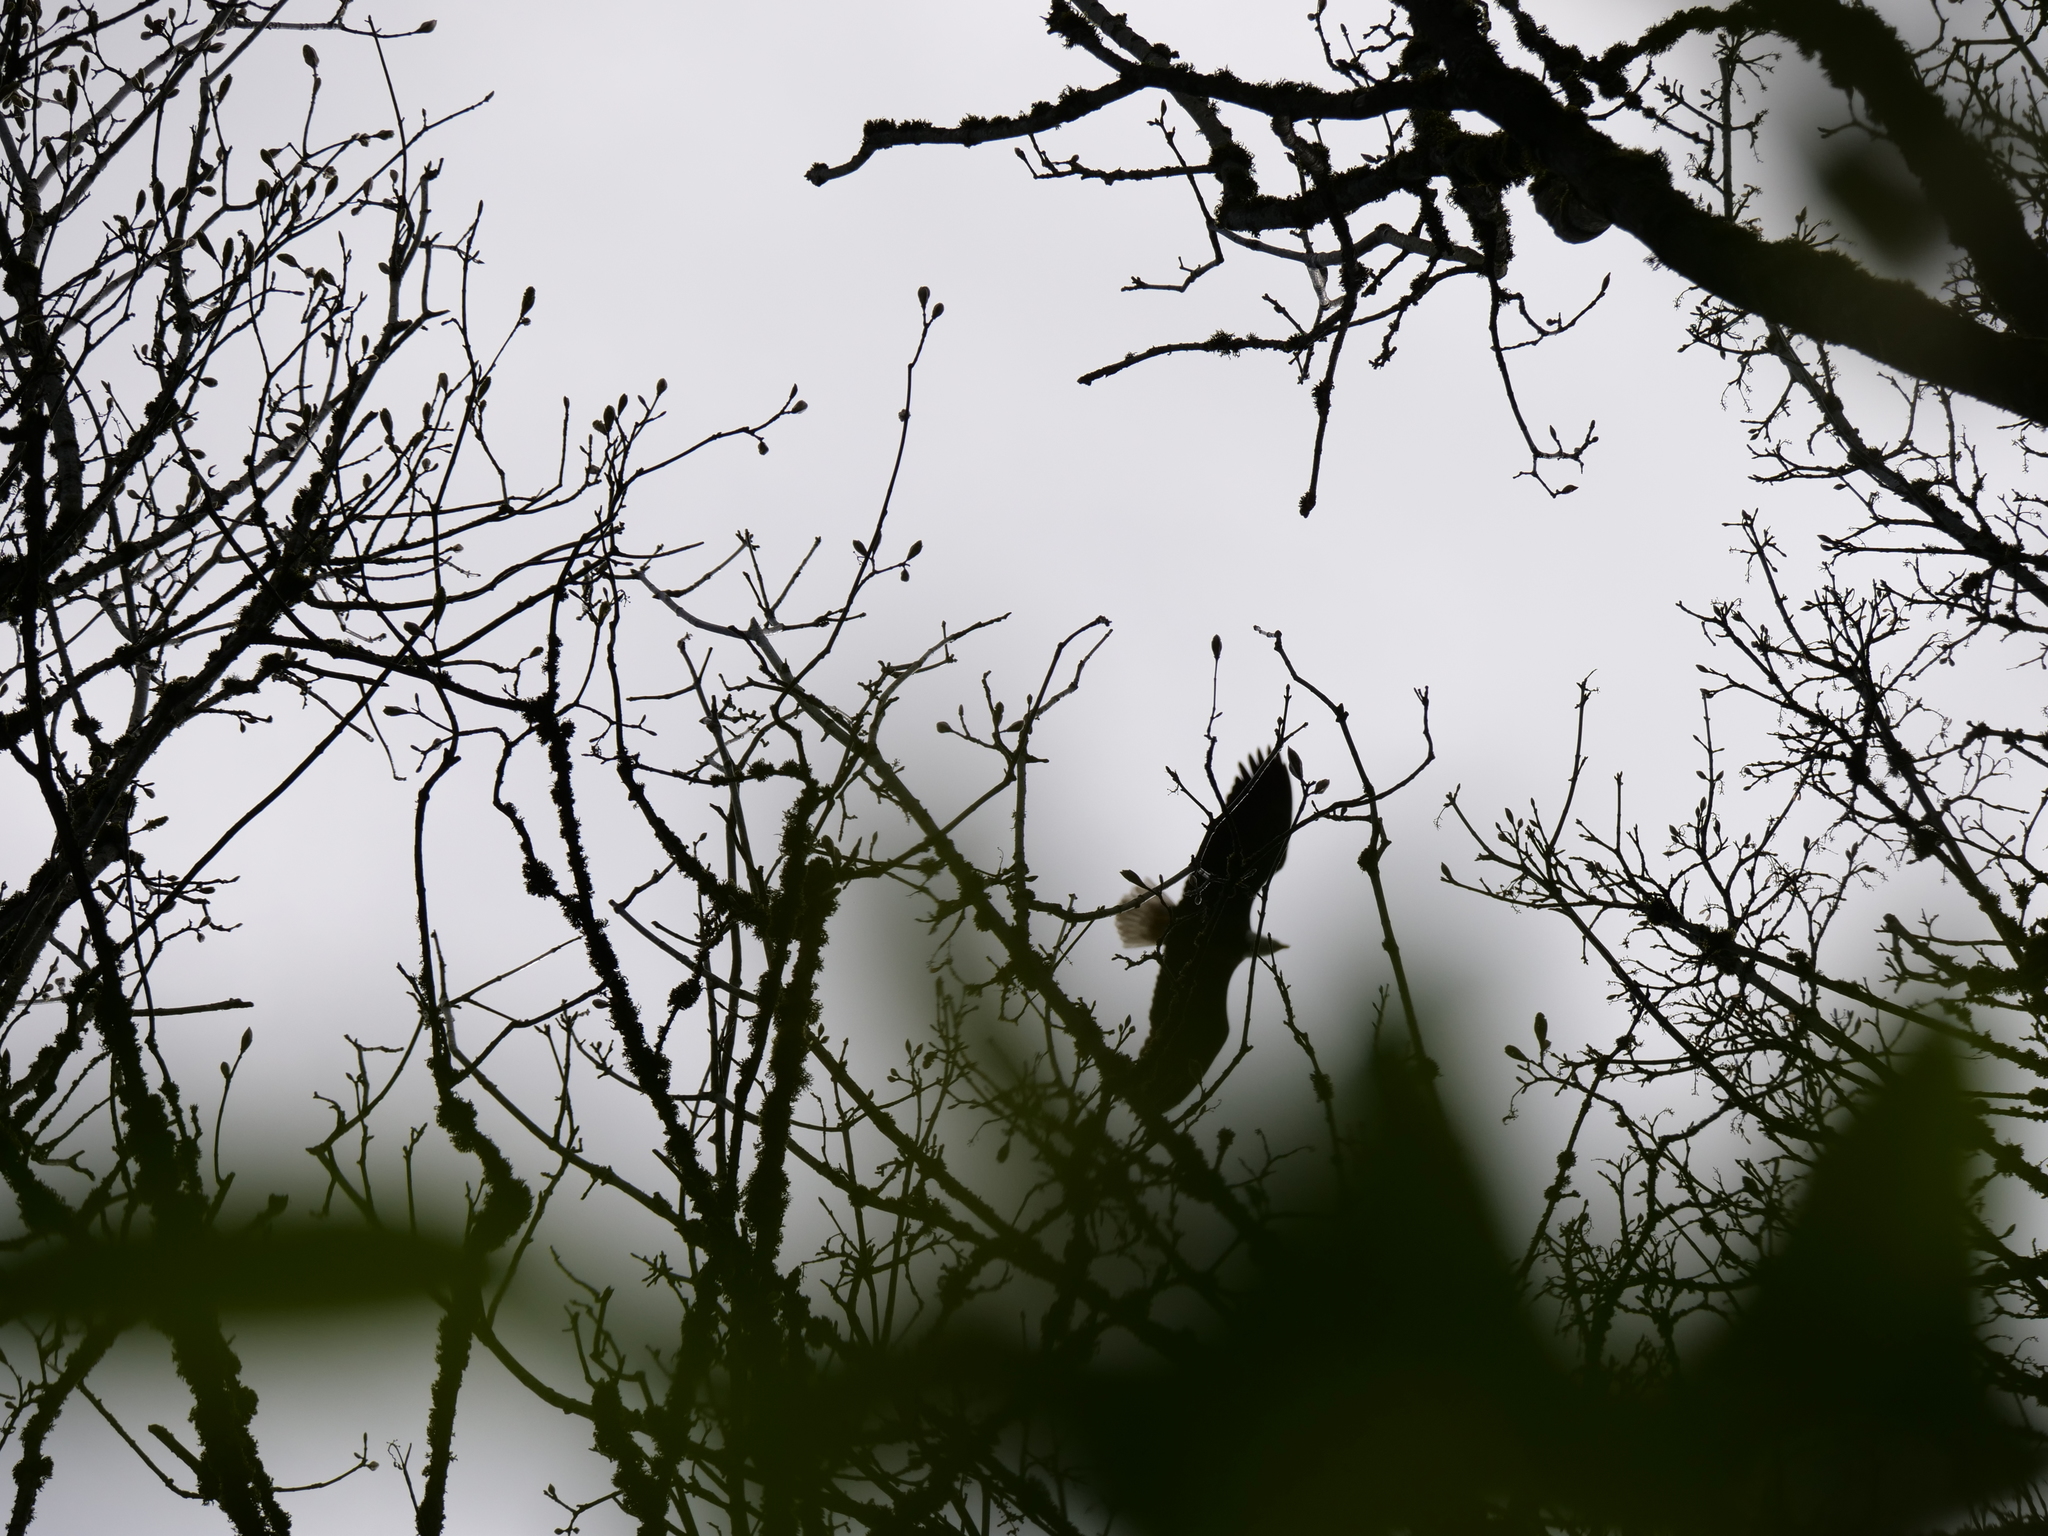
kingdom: Animalia
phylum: Chordata
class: Aves
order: Accipitriformes
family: Accipitridae
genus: Haliaeetus
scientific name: Haliaeetus leucocephalus
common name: Bald eagle
